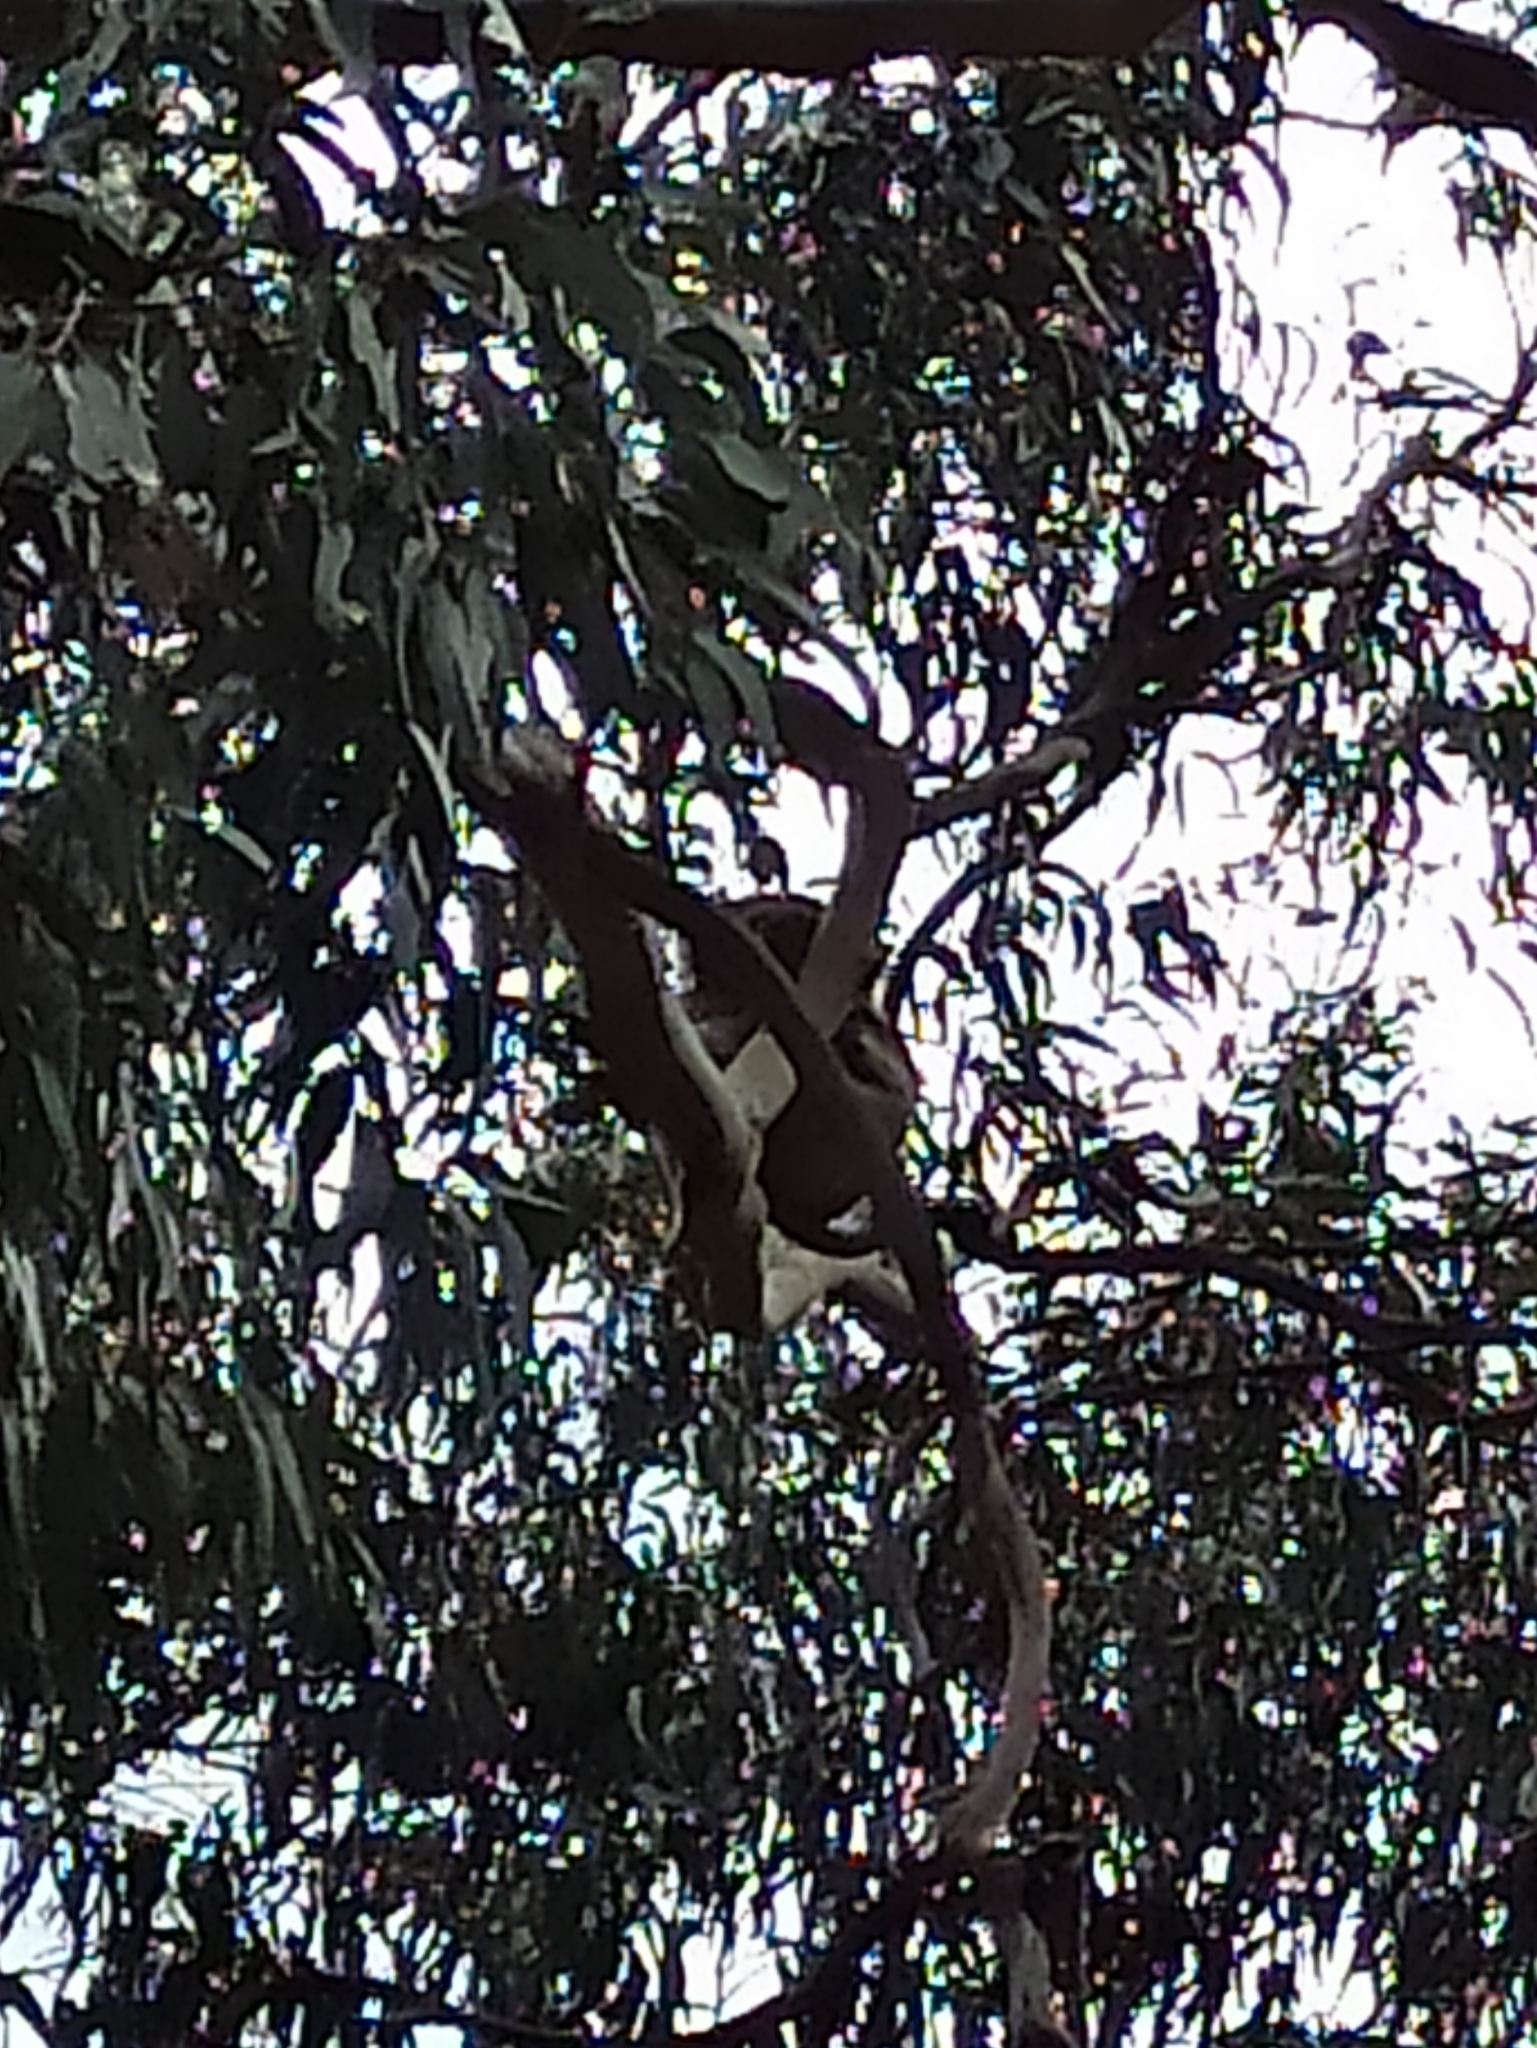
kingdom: Animalia
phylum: Chordata
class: Mammalia
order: Diprotodontia
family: Phascolarctidae
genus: Phascolarctos
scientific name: Phascolarctos cinereus
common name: Koala
